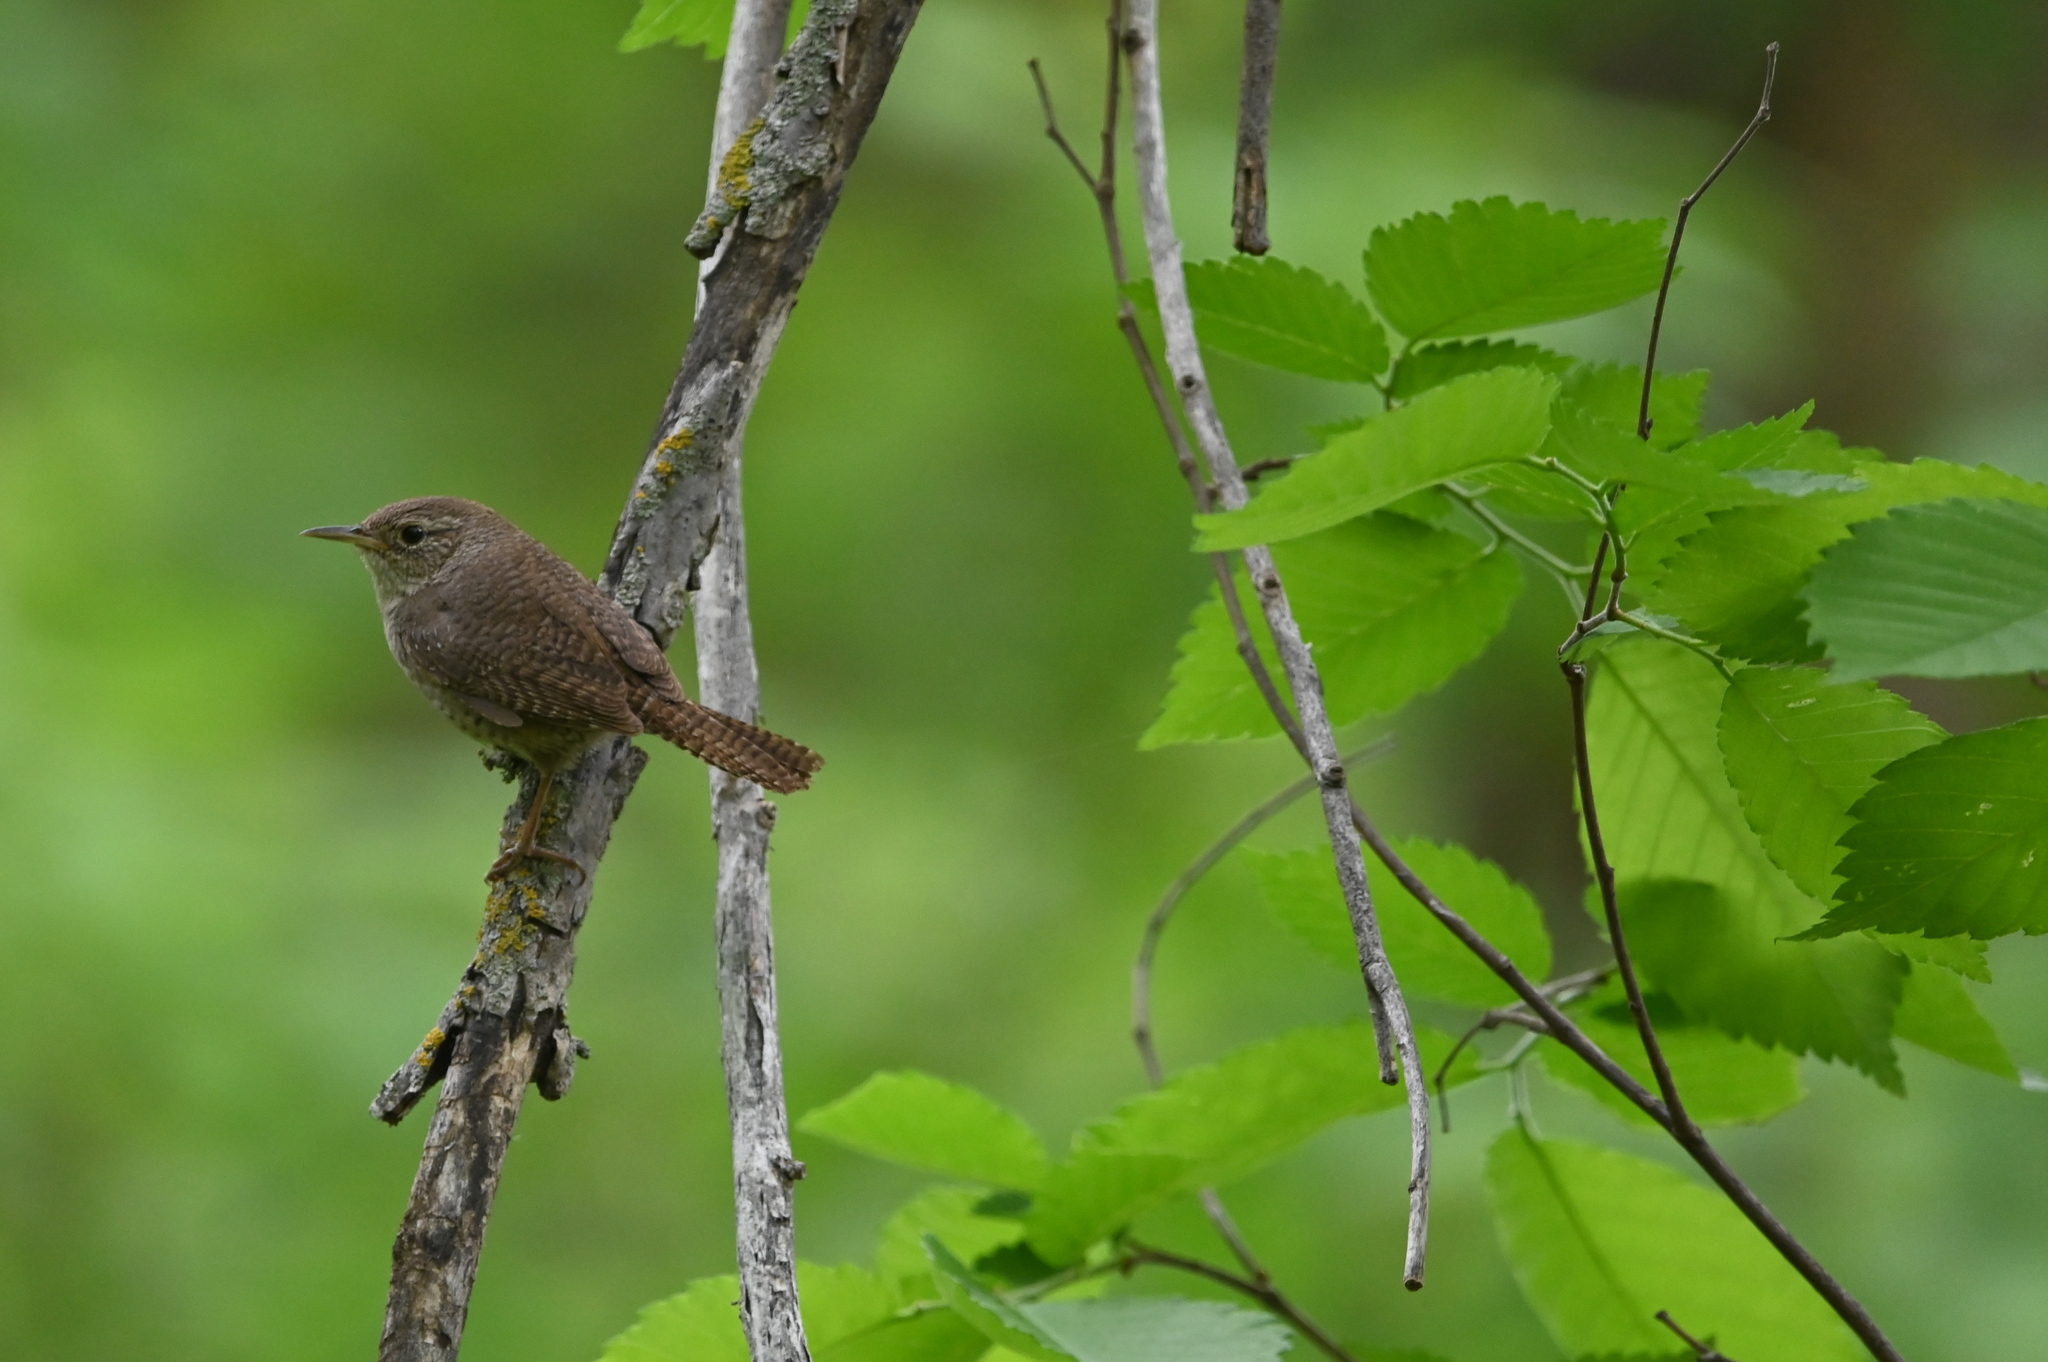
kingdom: Animalia
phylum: Chordata
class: Aves
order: Passeriformes
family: Troglodytidae
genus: Troglodytes
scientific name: Troglodytes aedon
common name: House wren
